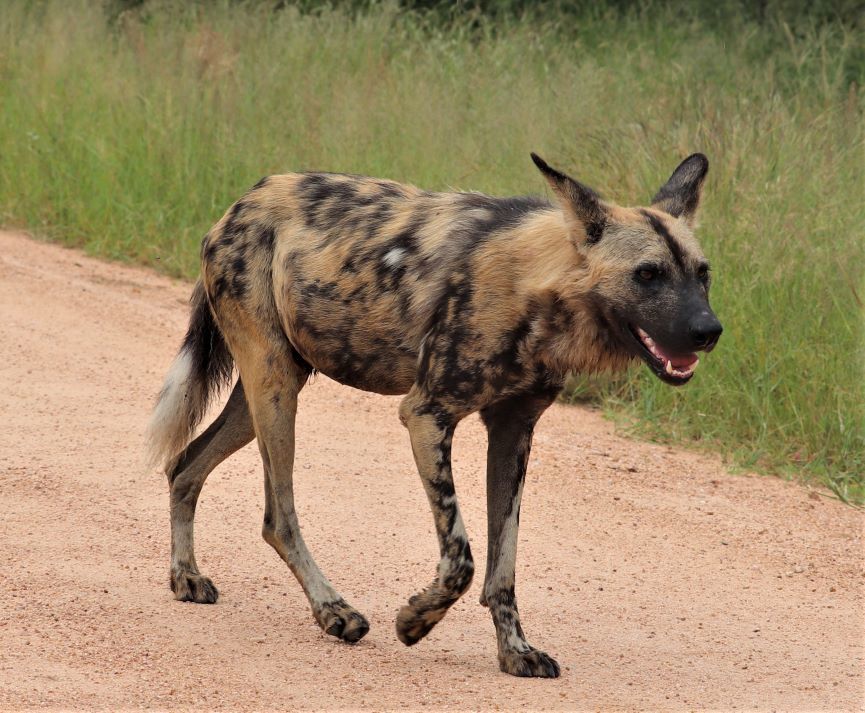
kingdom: Animalia
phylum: Chordata
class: Mammalia
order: Carnivora
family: Canidae
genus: Lycaon
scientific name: Lycaon pictus
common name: African wild dog
